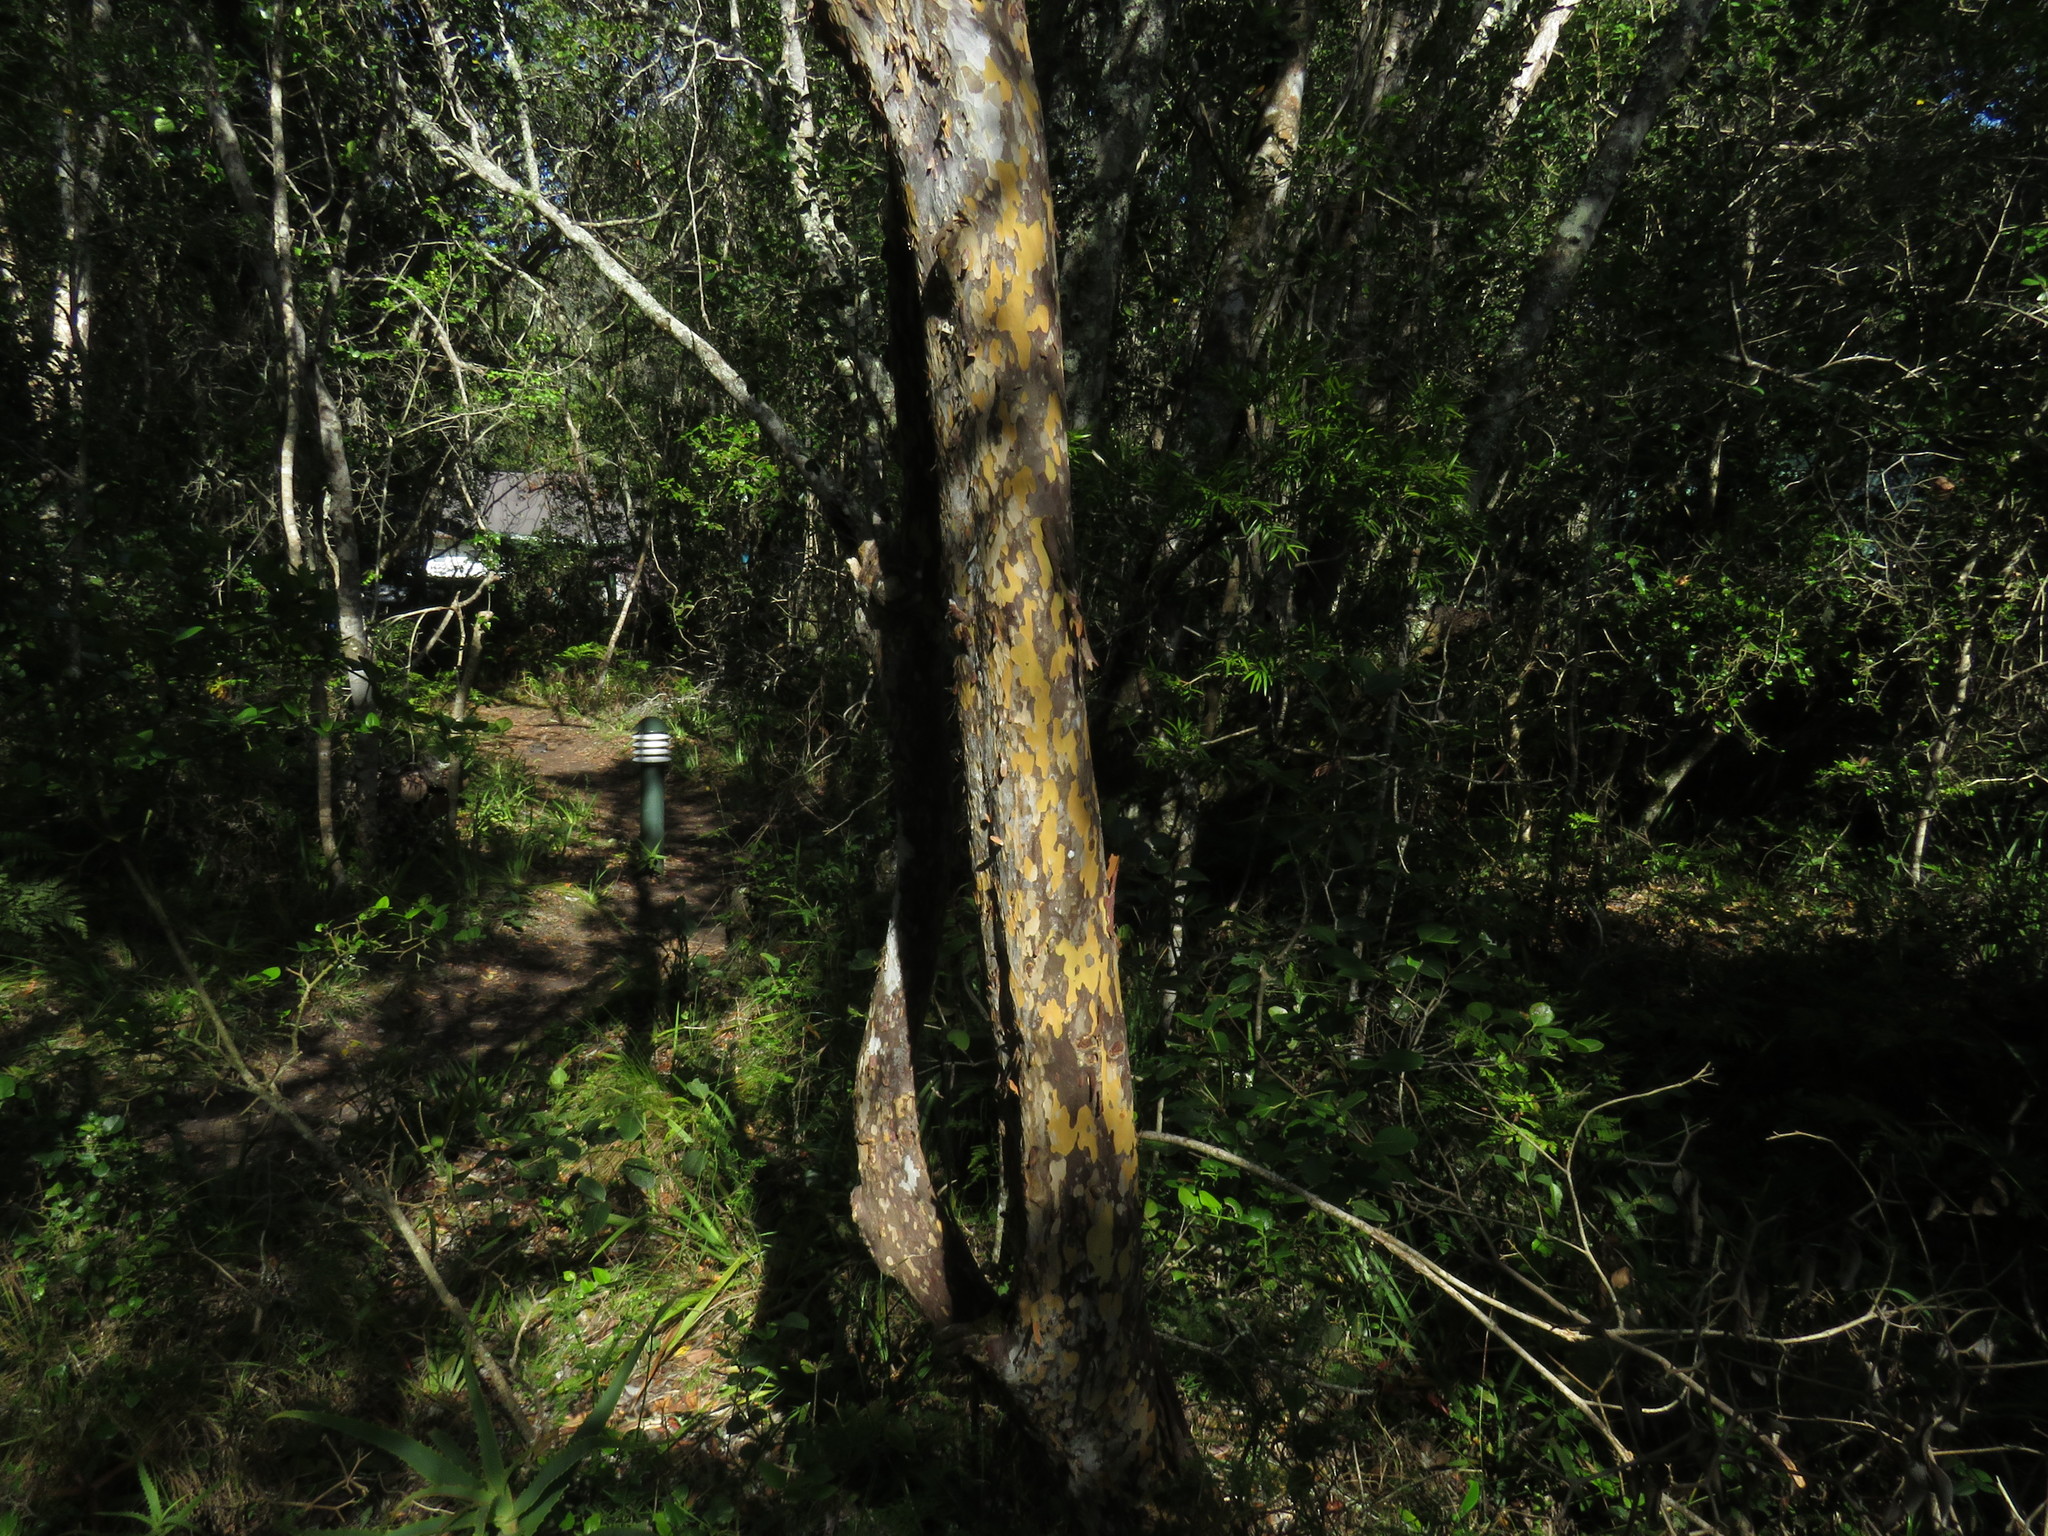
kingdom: Plantae
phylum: Tracheophyta
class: Magnoliopsida
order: Malpighiales
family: Ochnaceae
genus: Ochna
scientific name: Ochna arborea
